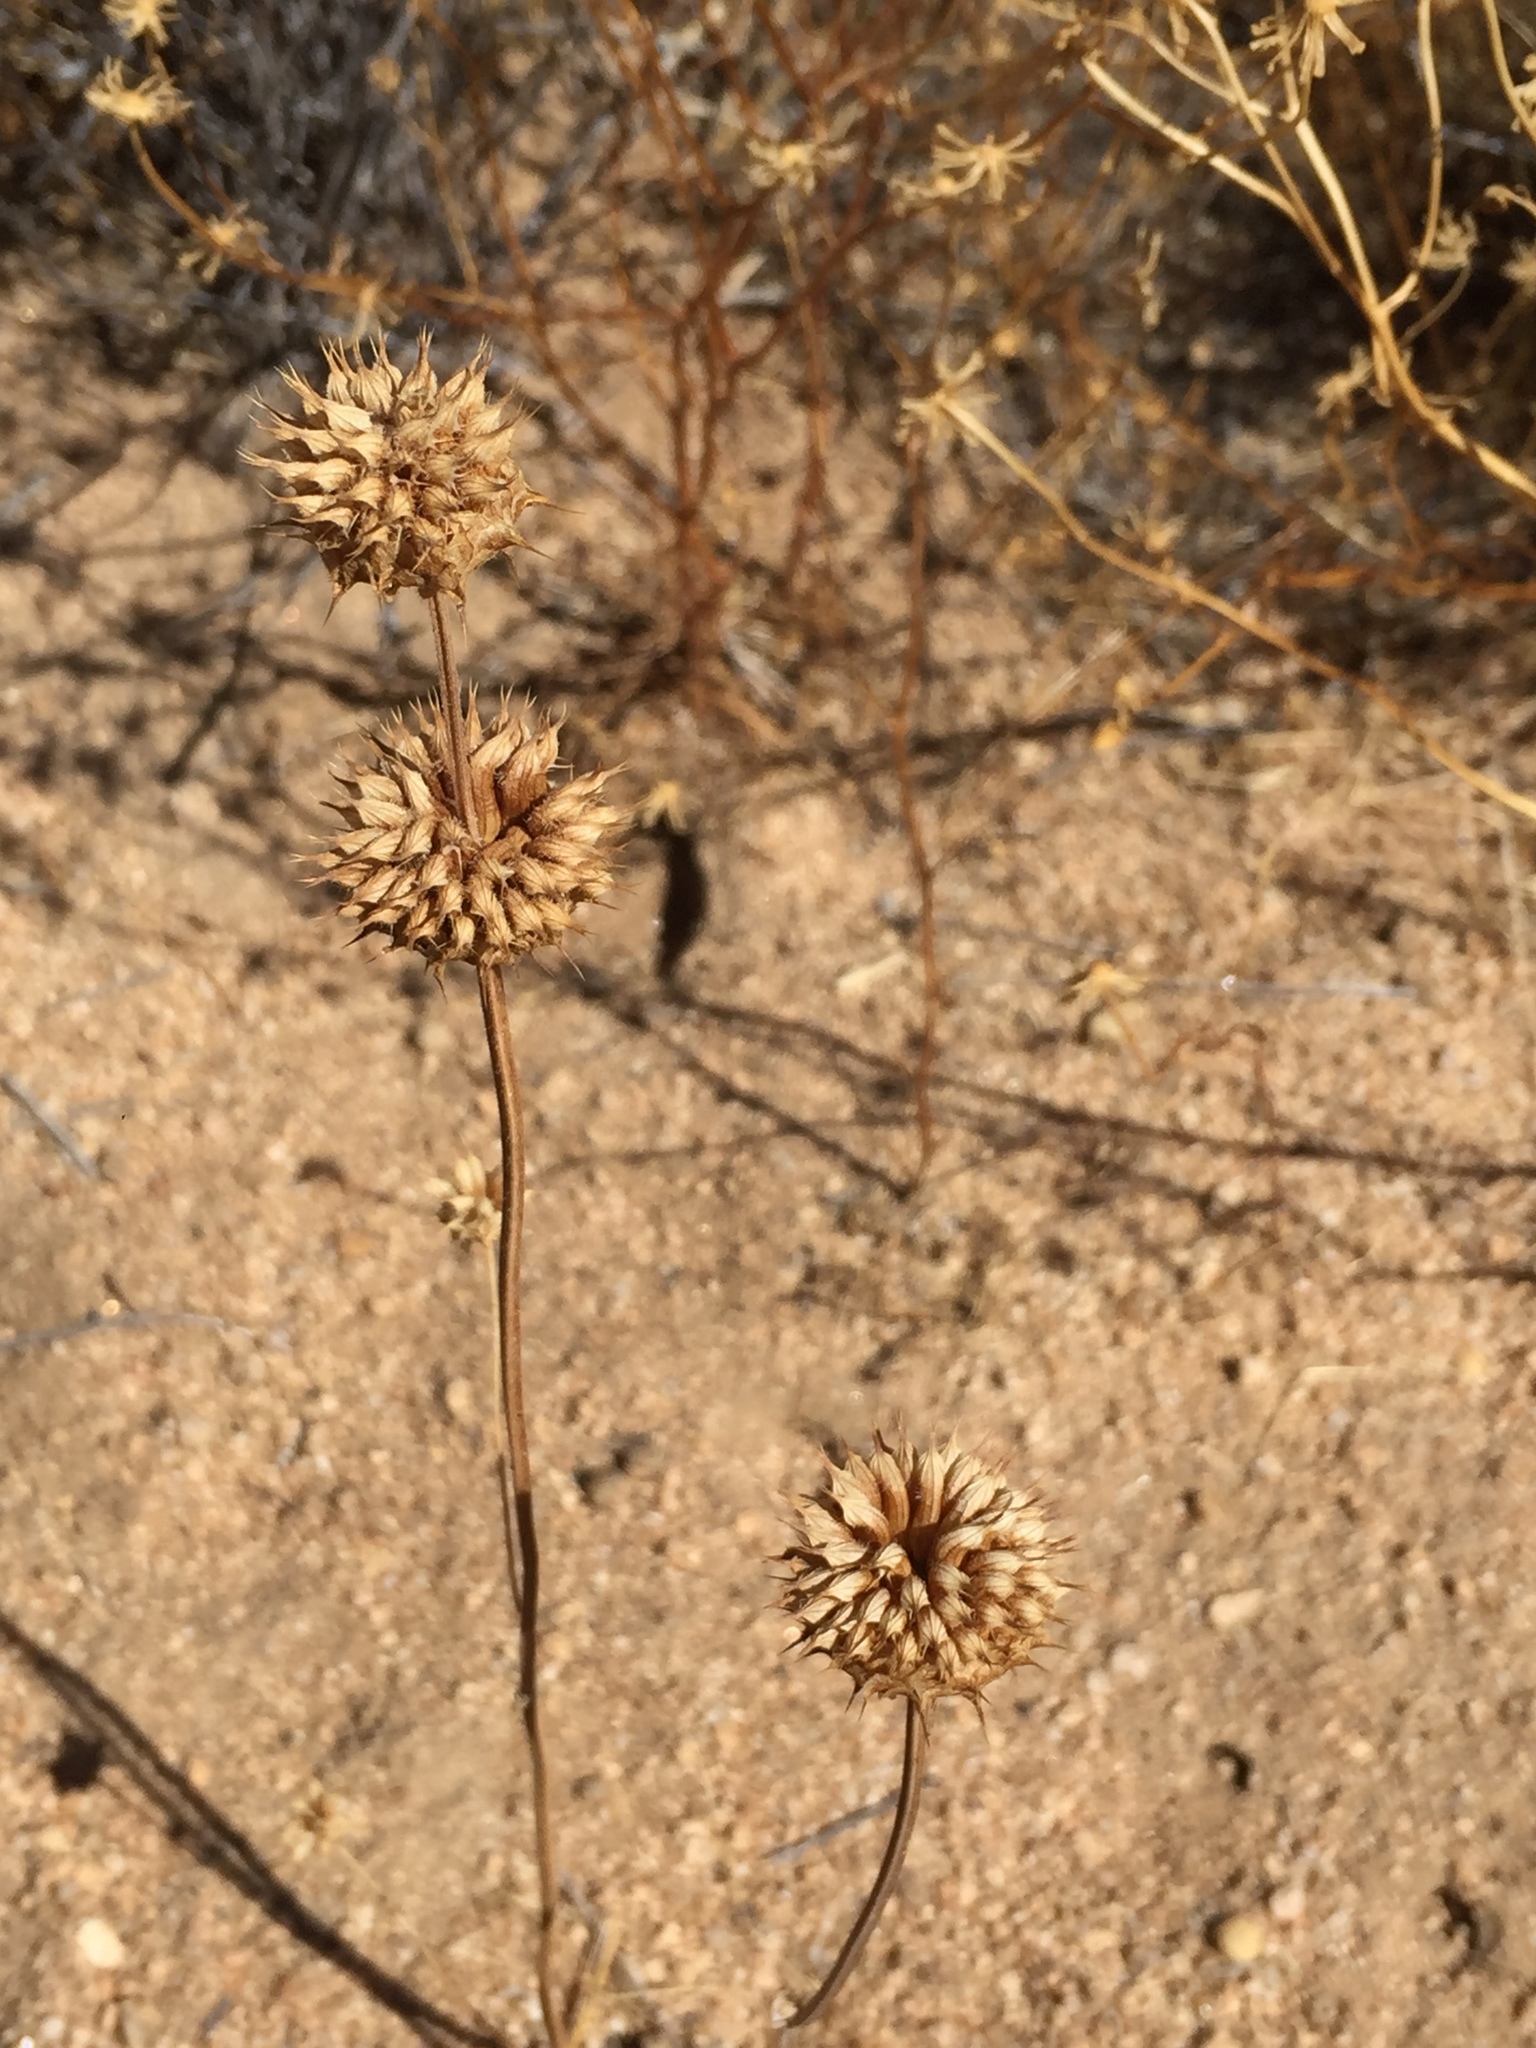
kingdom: Plantae
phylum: Tracheophyta
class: Magnoliopsida
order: Lamiales
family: Lamiaceae
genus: Salvia
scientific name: Salvia columbariae
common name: Chia
